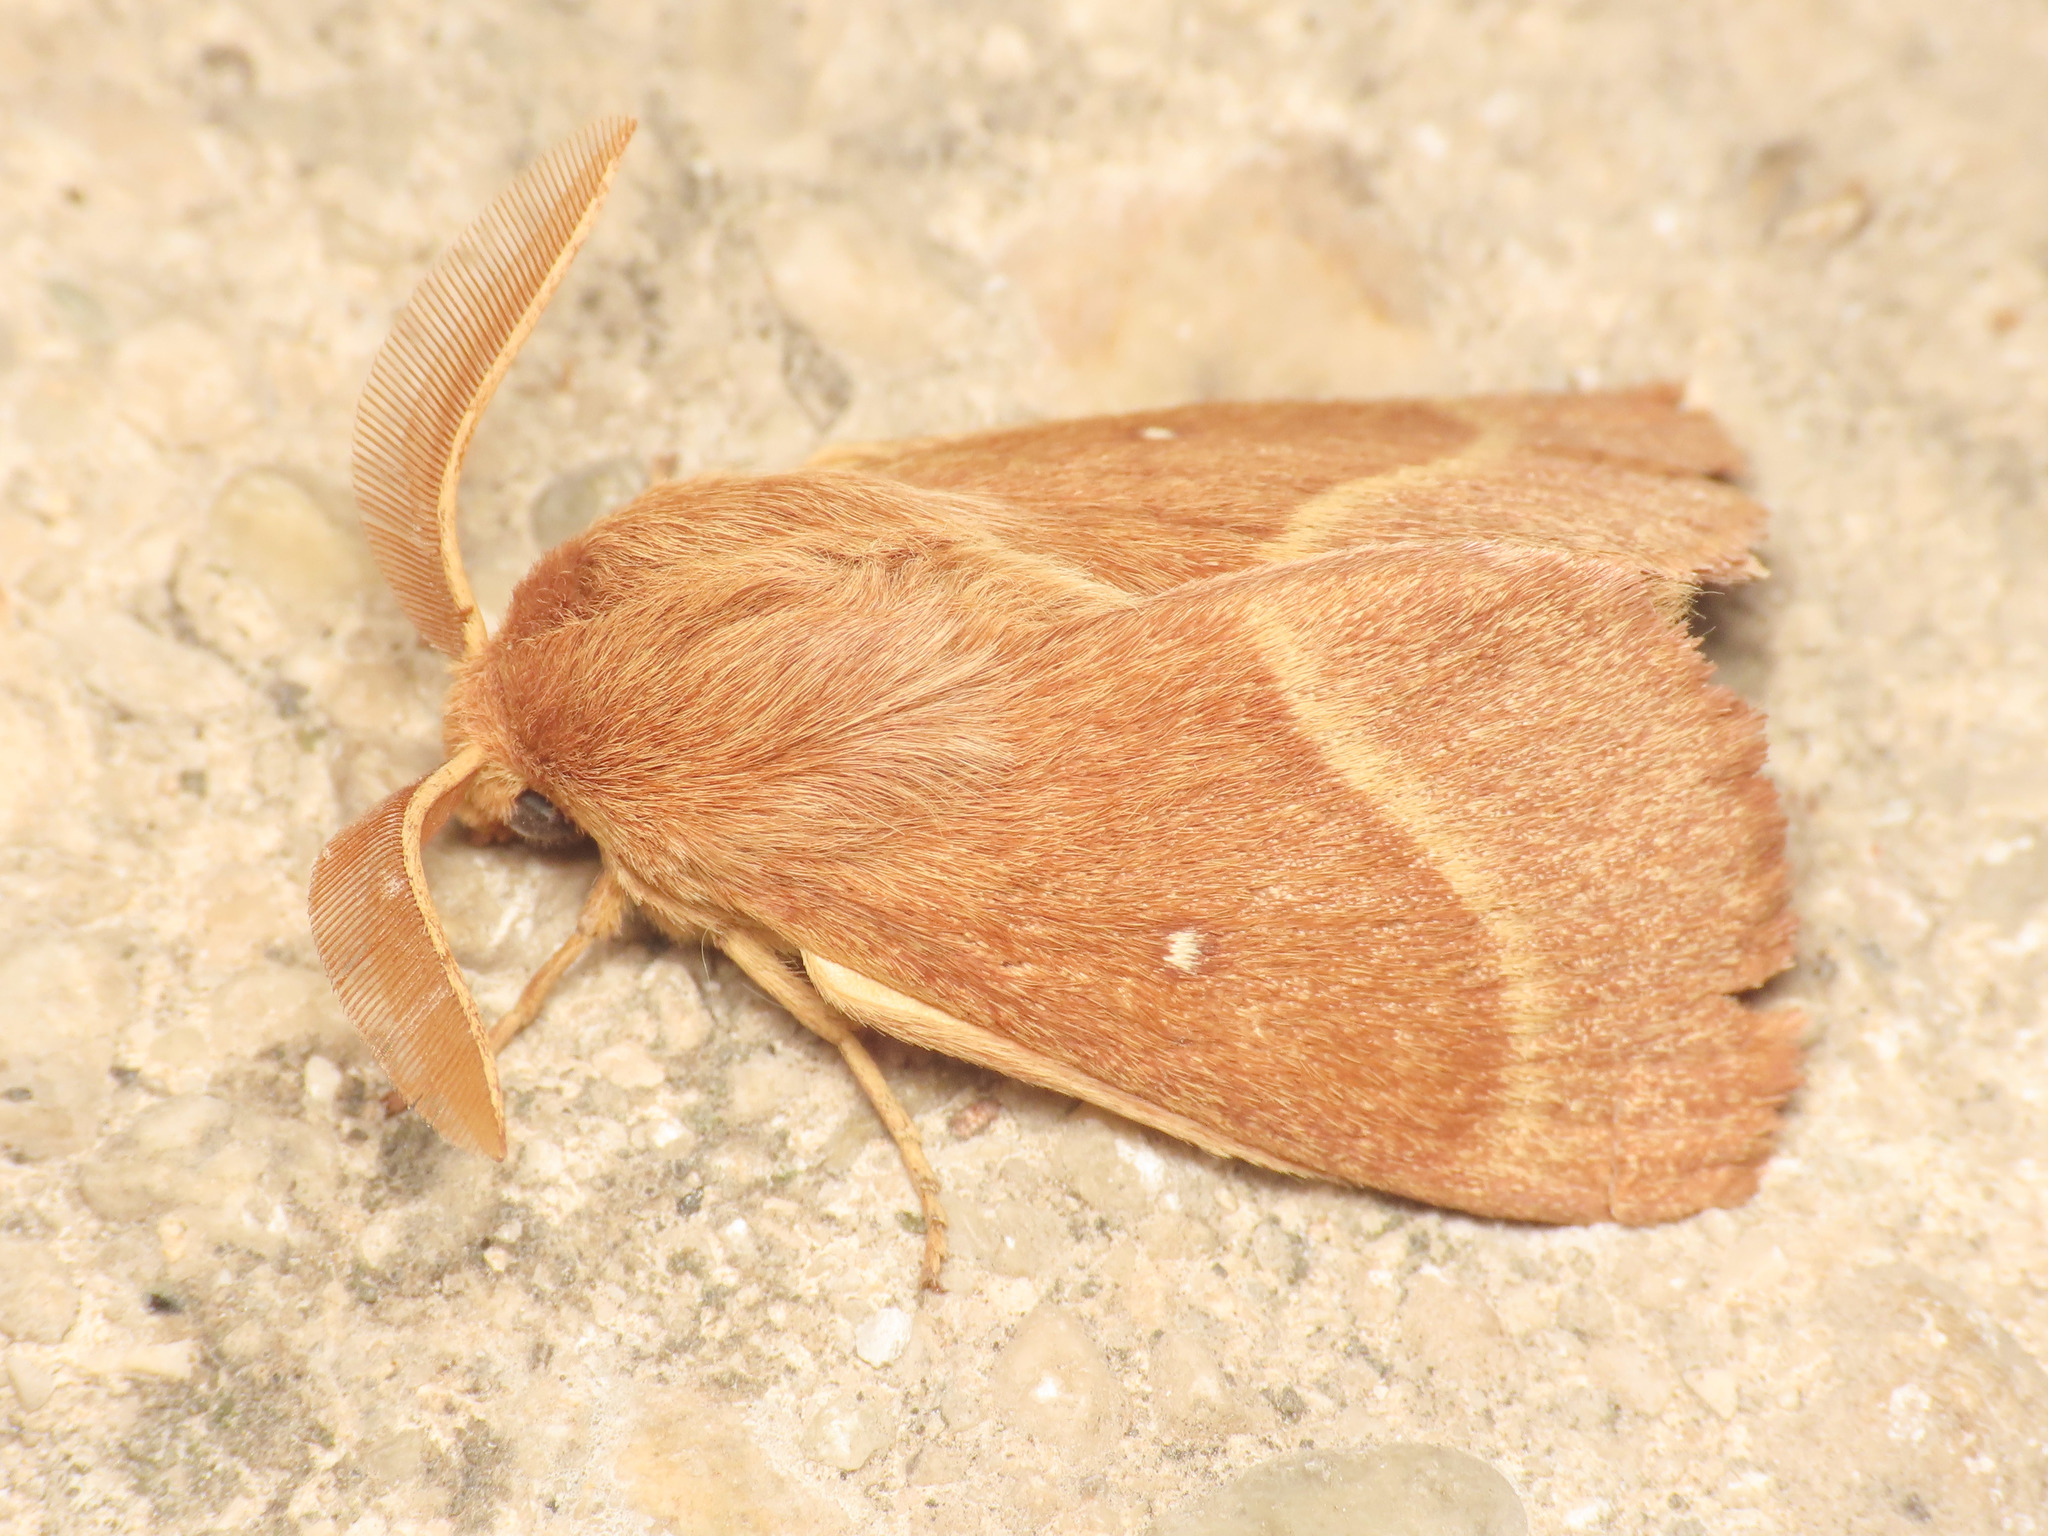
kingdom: Animalia
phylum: Arthropoda
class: Insecta
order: Lepidoptera
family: Lasiocampidae
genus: Lasiocampa
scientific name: Lasiocampa trifolii
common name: Grass eggar
